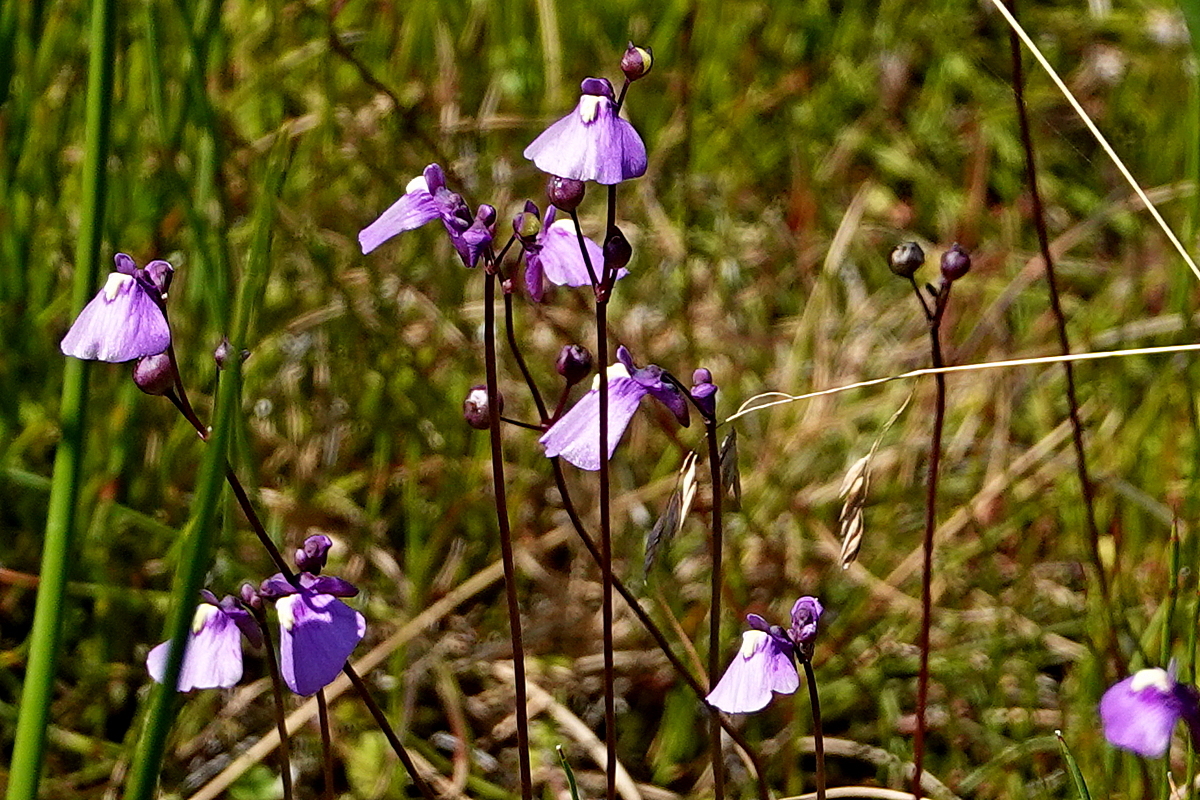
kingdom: Plantae
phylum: Tracheophyta
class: Magnoliopsida
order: Lamiales
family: Lentibulariaceae
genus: Utricularia
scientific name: Utricularia dichotoma
